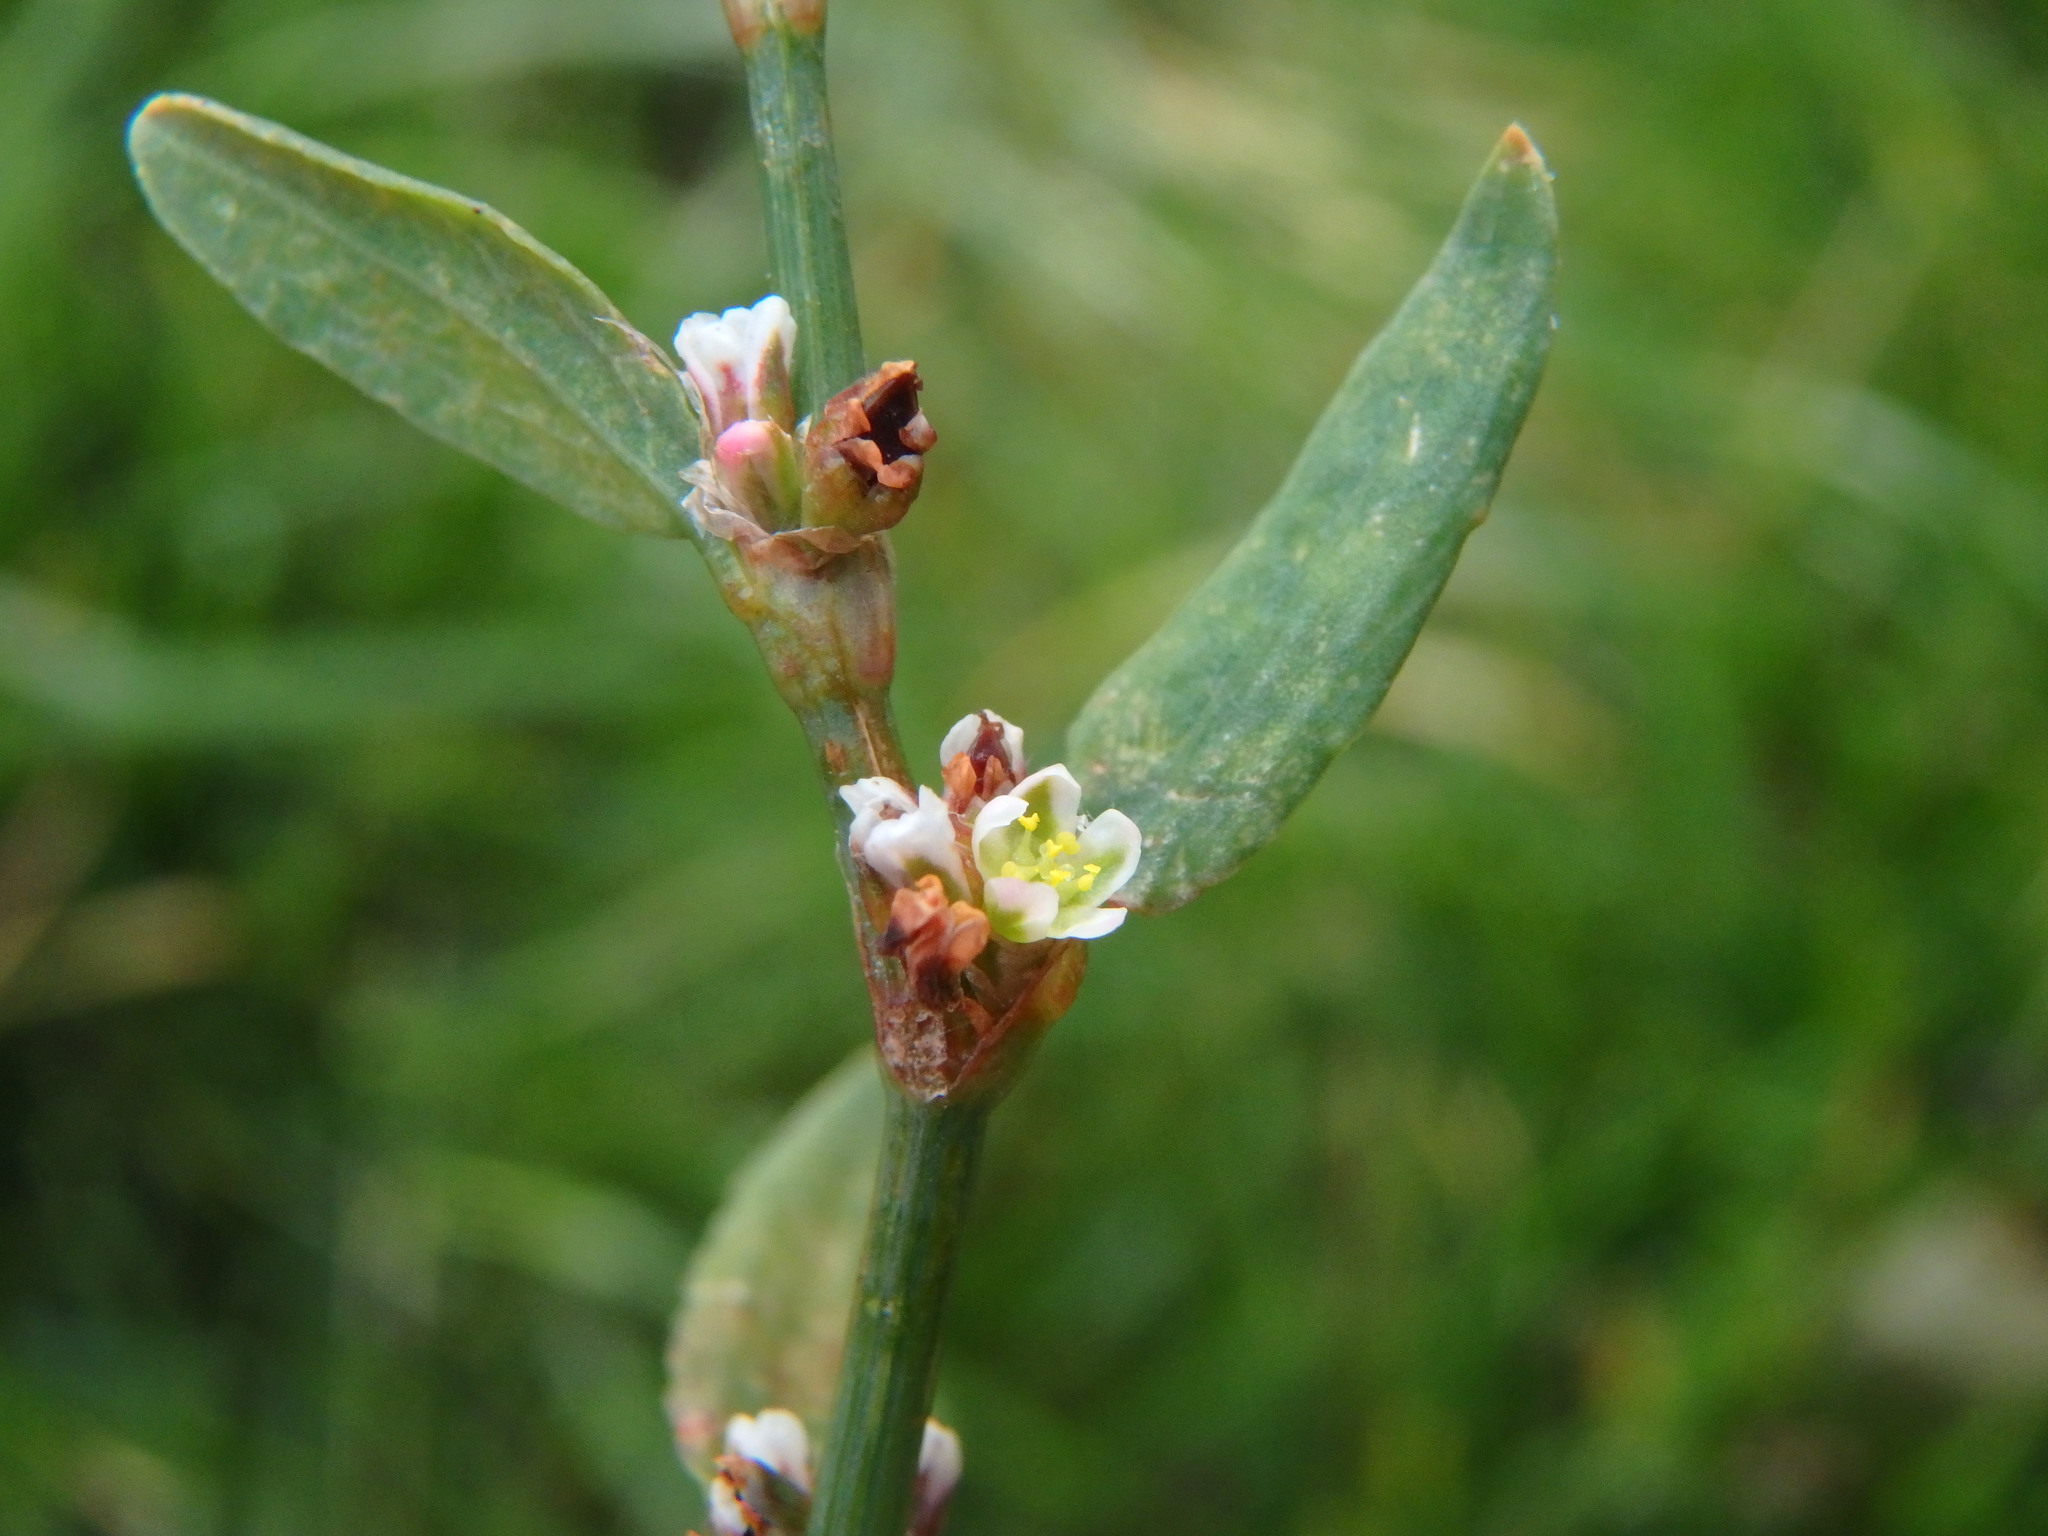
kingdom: Plantae
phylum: Tracheophyta
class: Magnoliopsida
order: Caryophyllales
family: Polygonaceae
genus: Polygonum
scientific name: Polygonum aviculare
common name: Prostrate knotweed
